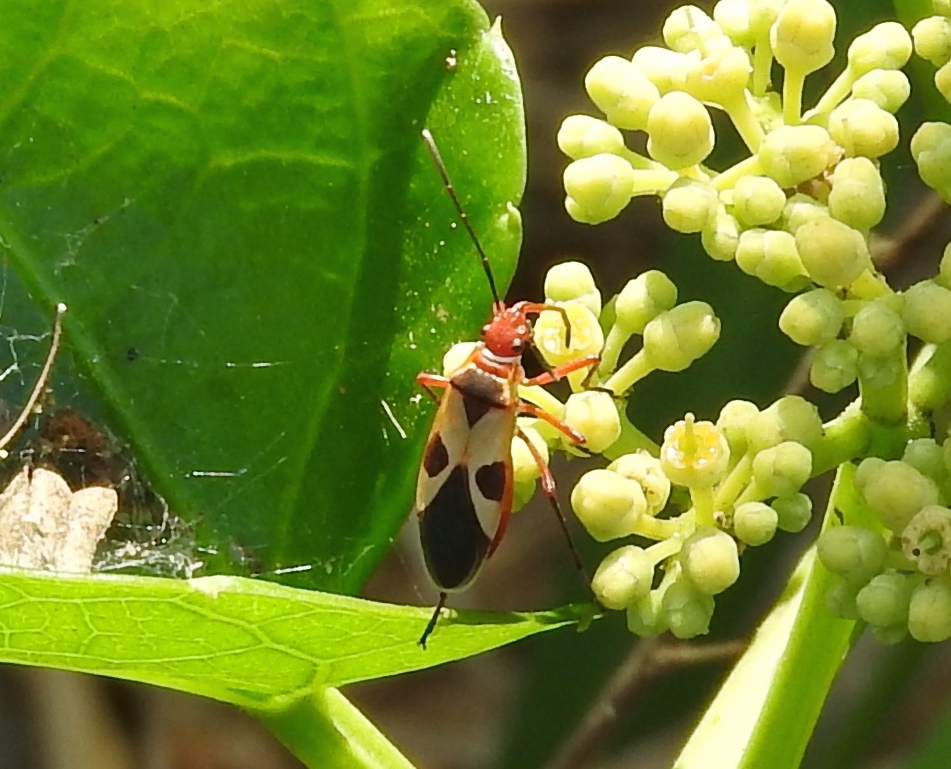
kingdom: Animalia
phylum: Arthropoda
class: Insecta
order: Hemiptera
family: Pyrrhocoridae
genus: Dysdercus
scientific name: Dysdercus mimus
